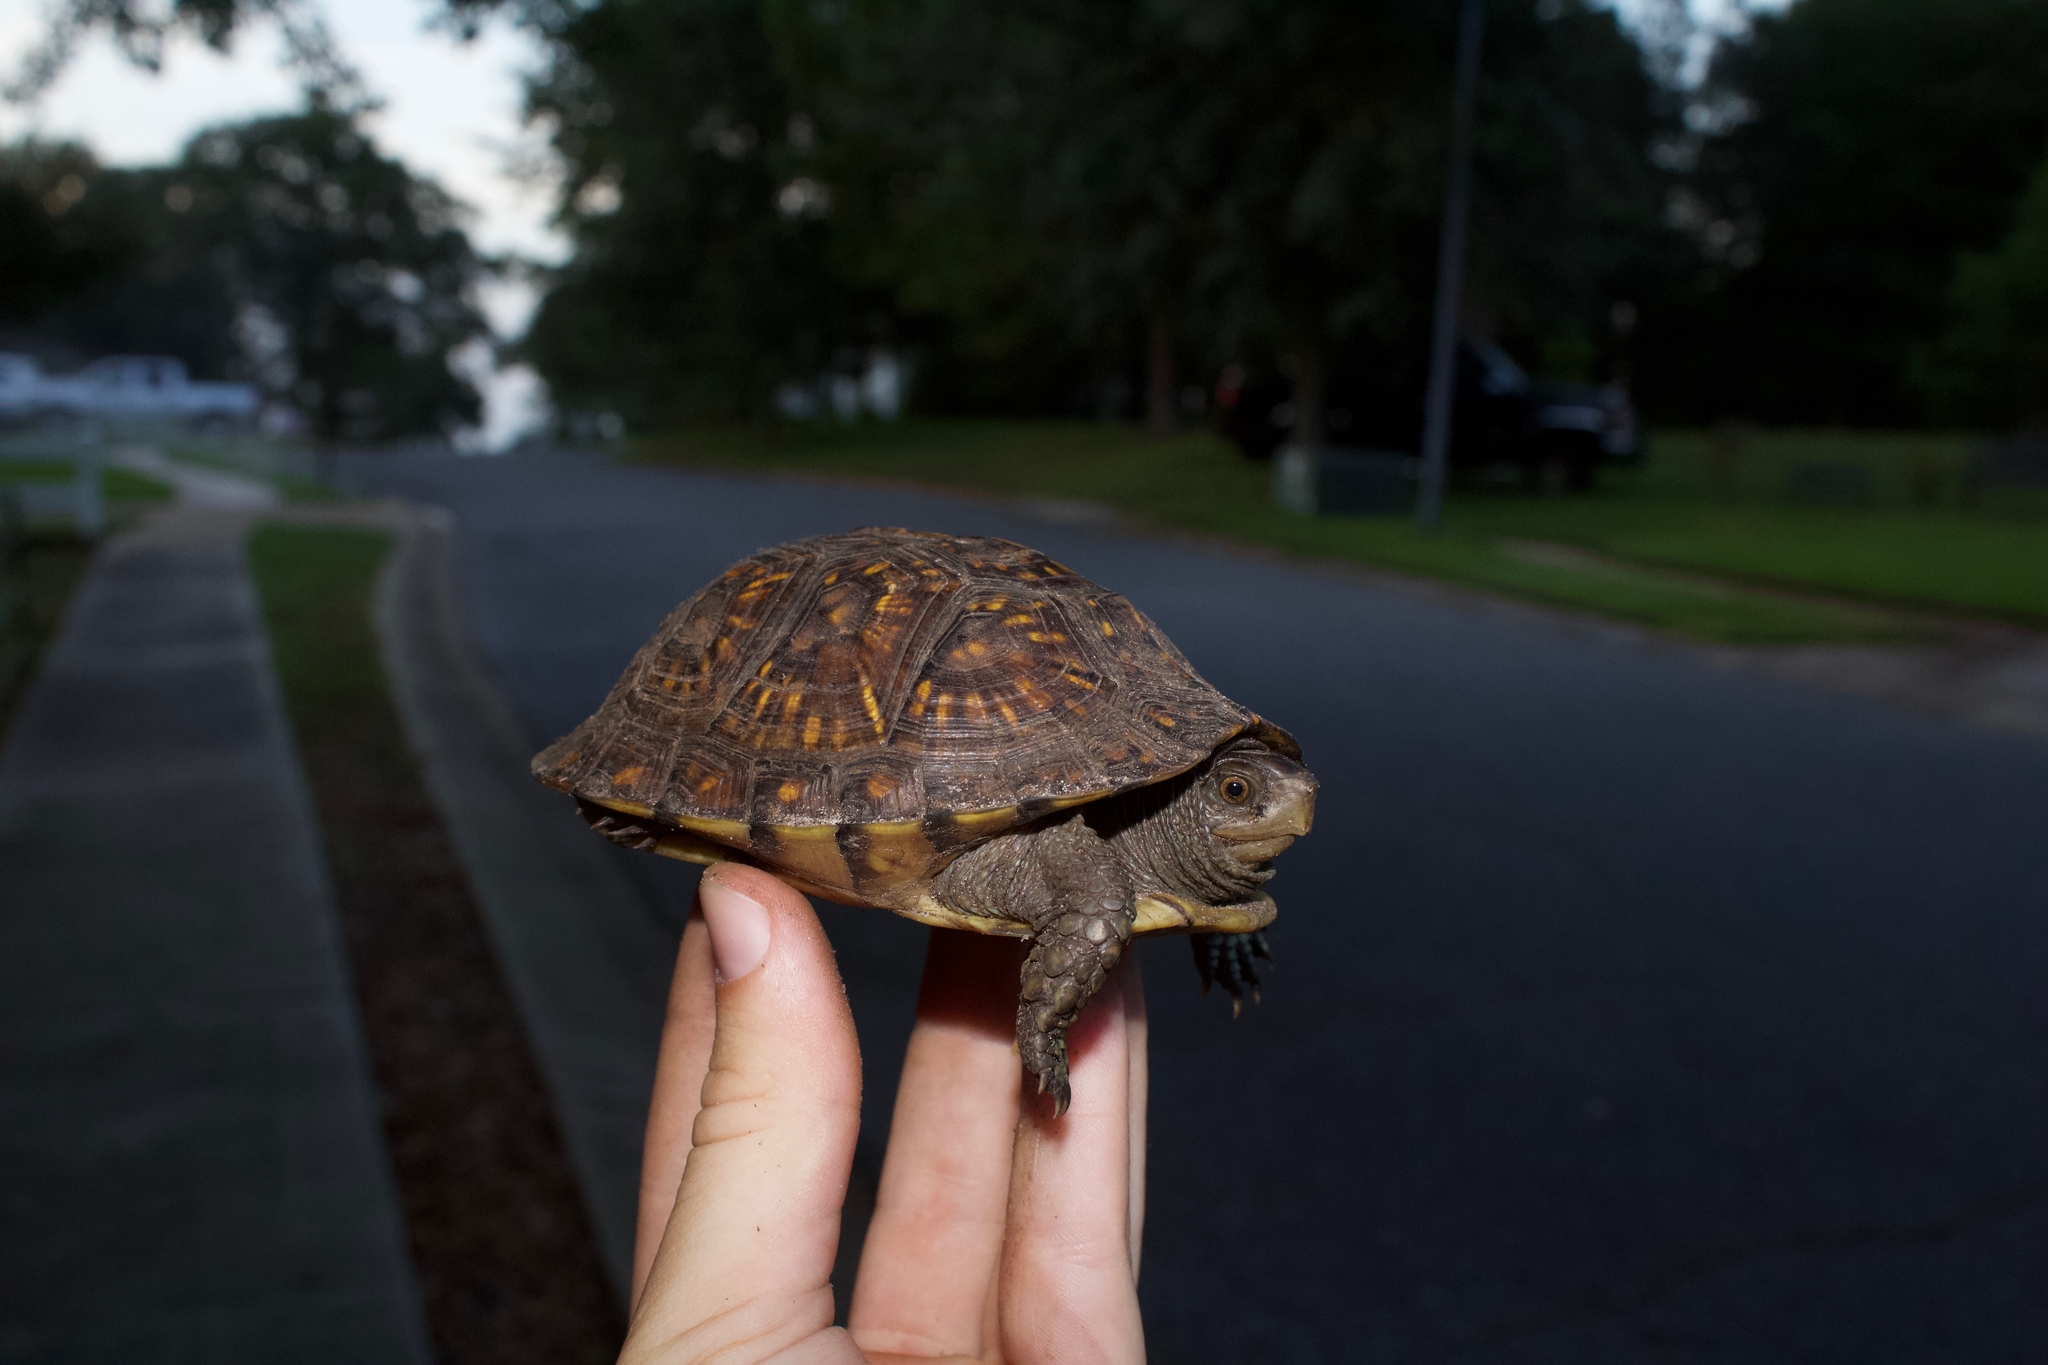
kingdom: Animalia
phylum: Chordata
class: Testudines
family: Emydidae
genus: Terrapene
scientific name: Terrapene carolina
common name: Common box turtle
